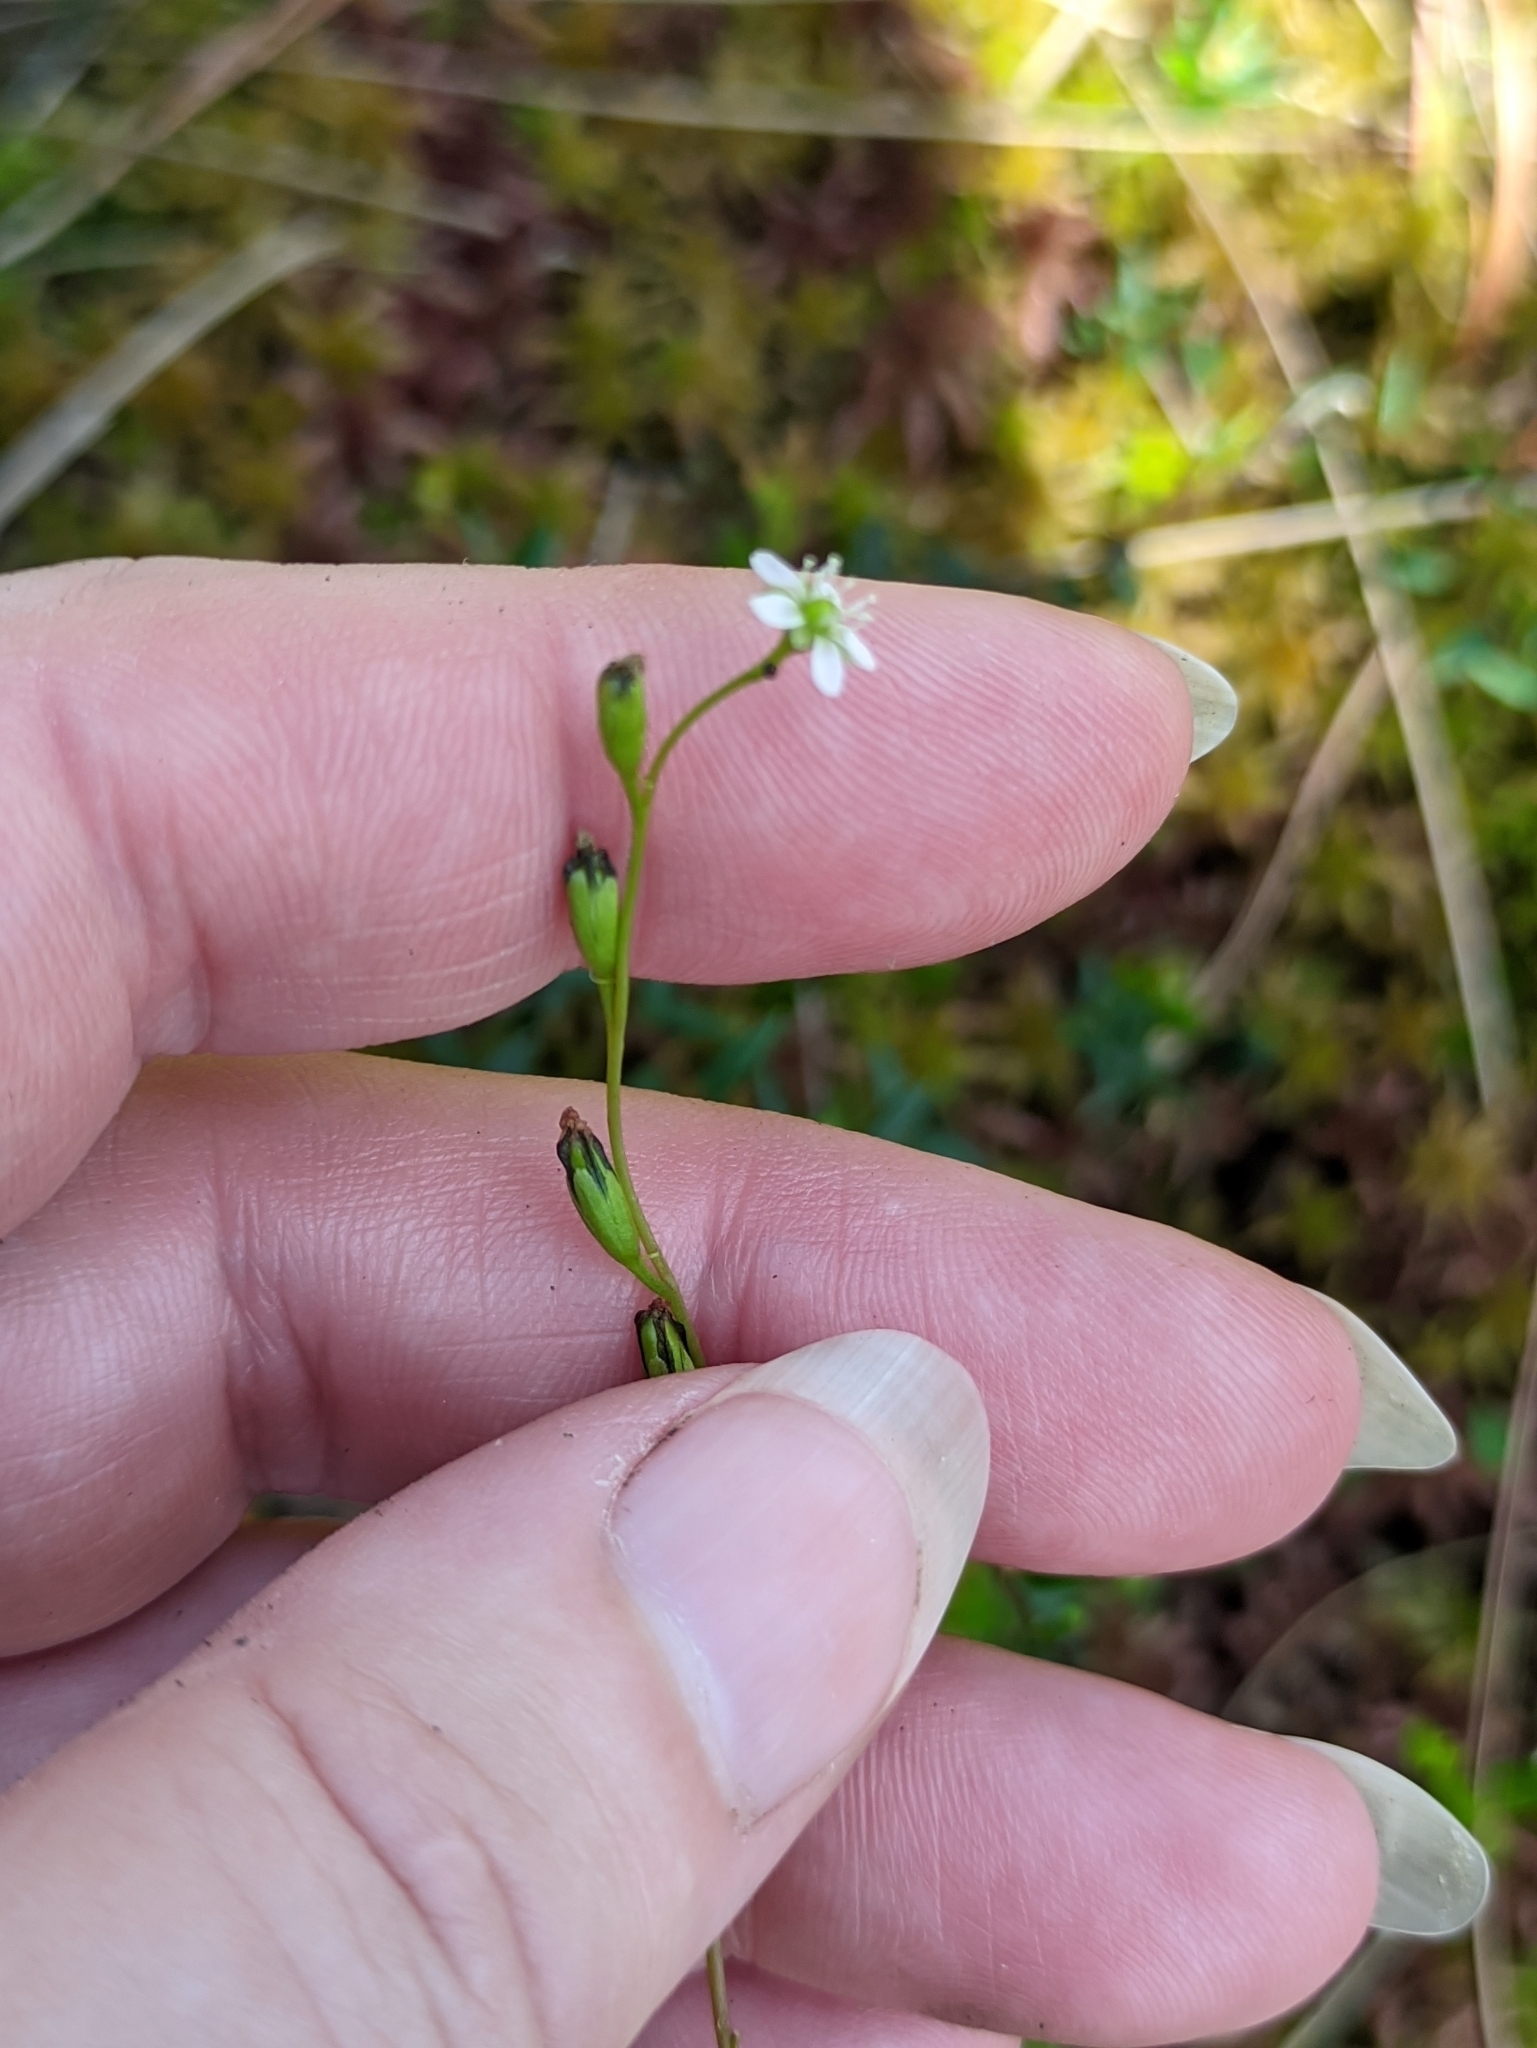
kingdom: Plantae
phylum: Tracheophyta
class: Magnoliopsida
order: Caryophyllales
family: Droseraceae
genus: Drosera
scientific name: Drosera rotundifolia
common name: Round-leaved sundew
